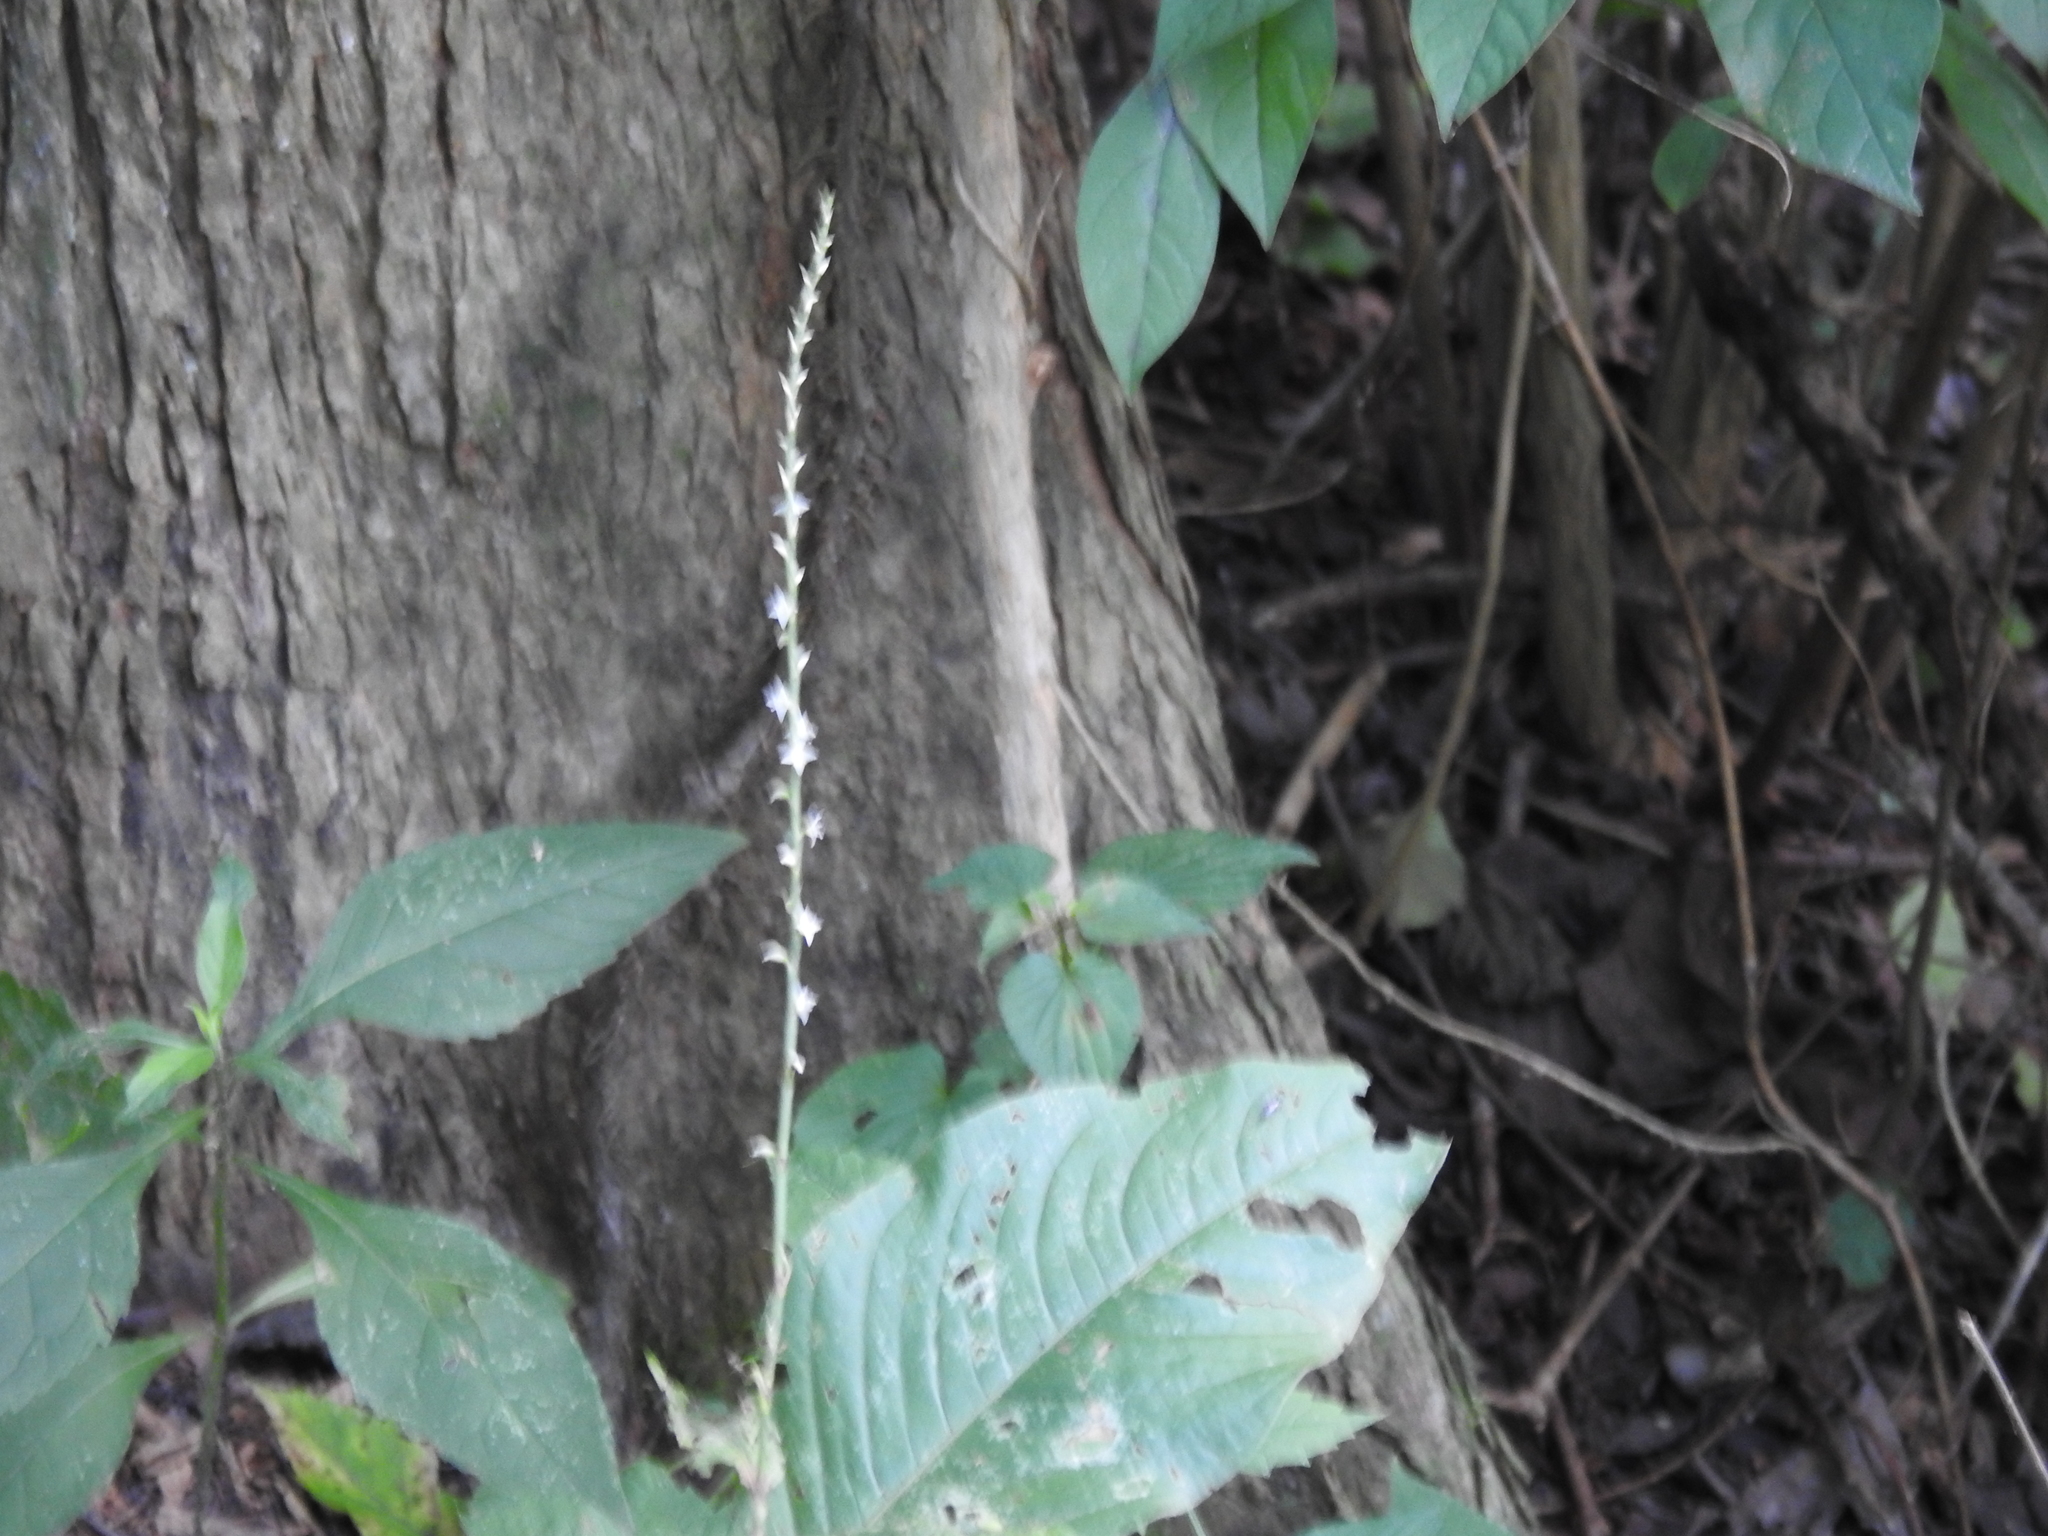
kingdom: Plantae
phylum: Tracheophyta
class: Magnoliopsida
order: Caryophyllales
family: Polygonaceae
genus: Persicaria
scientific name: Persicaria virginiana
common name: Jumpseed
